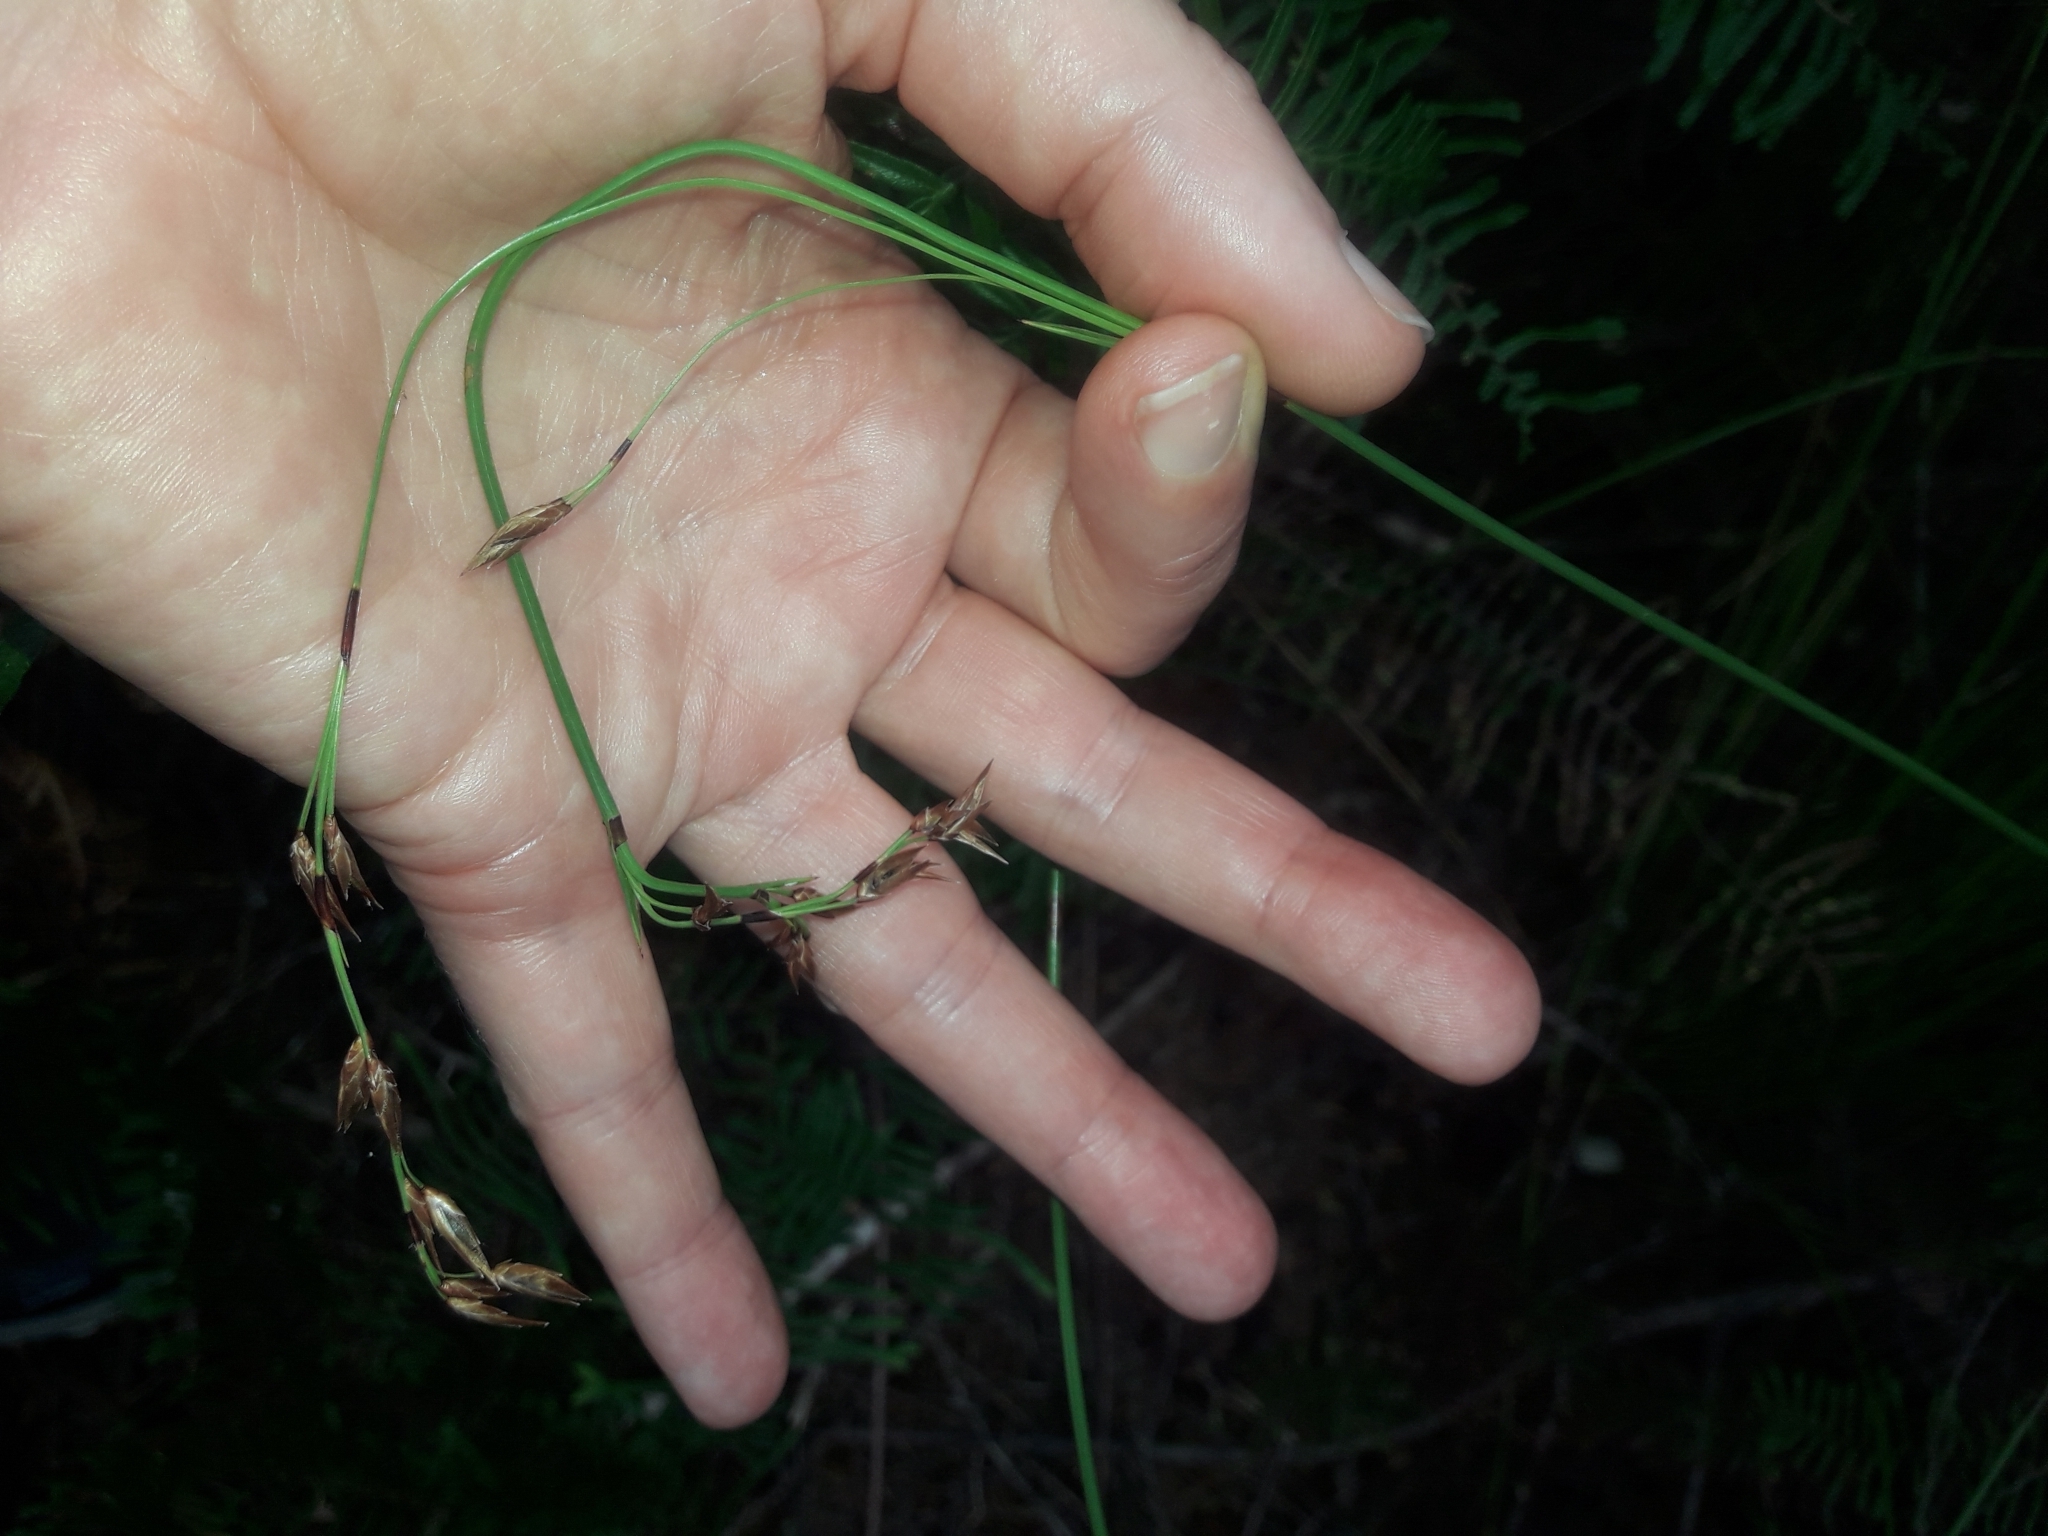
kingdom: Plantae
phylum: Tracheophyta
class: Liliopsida
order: Poales
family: Cyperaceae
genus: Schoenus
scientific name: Schoenus tendo
